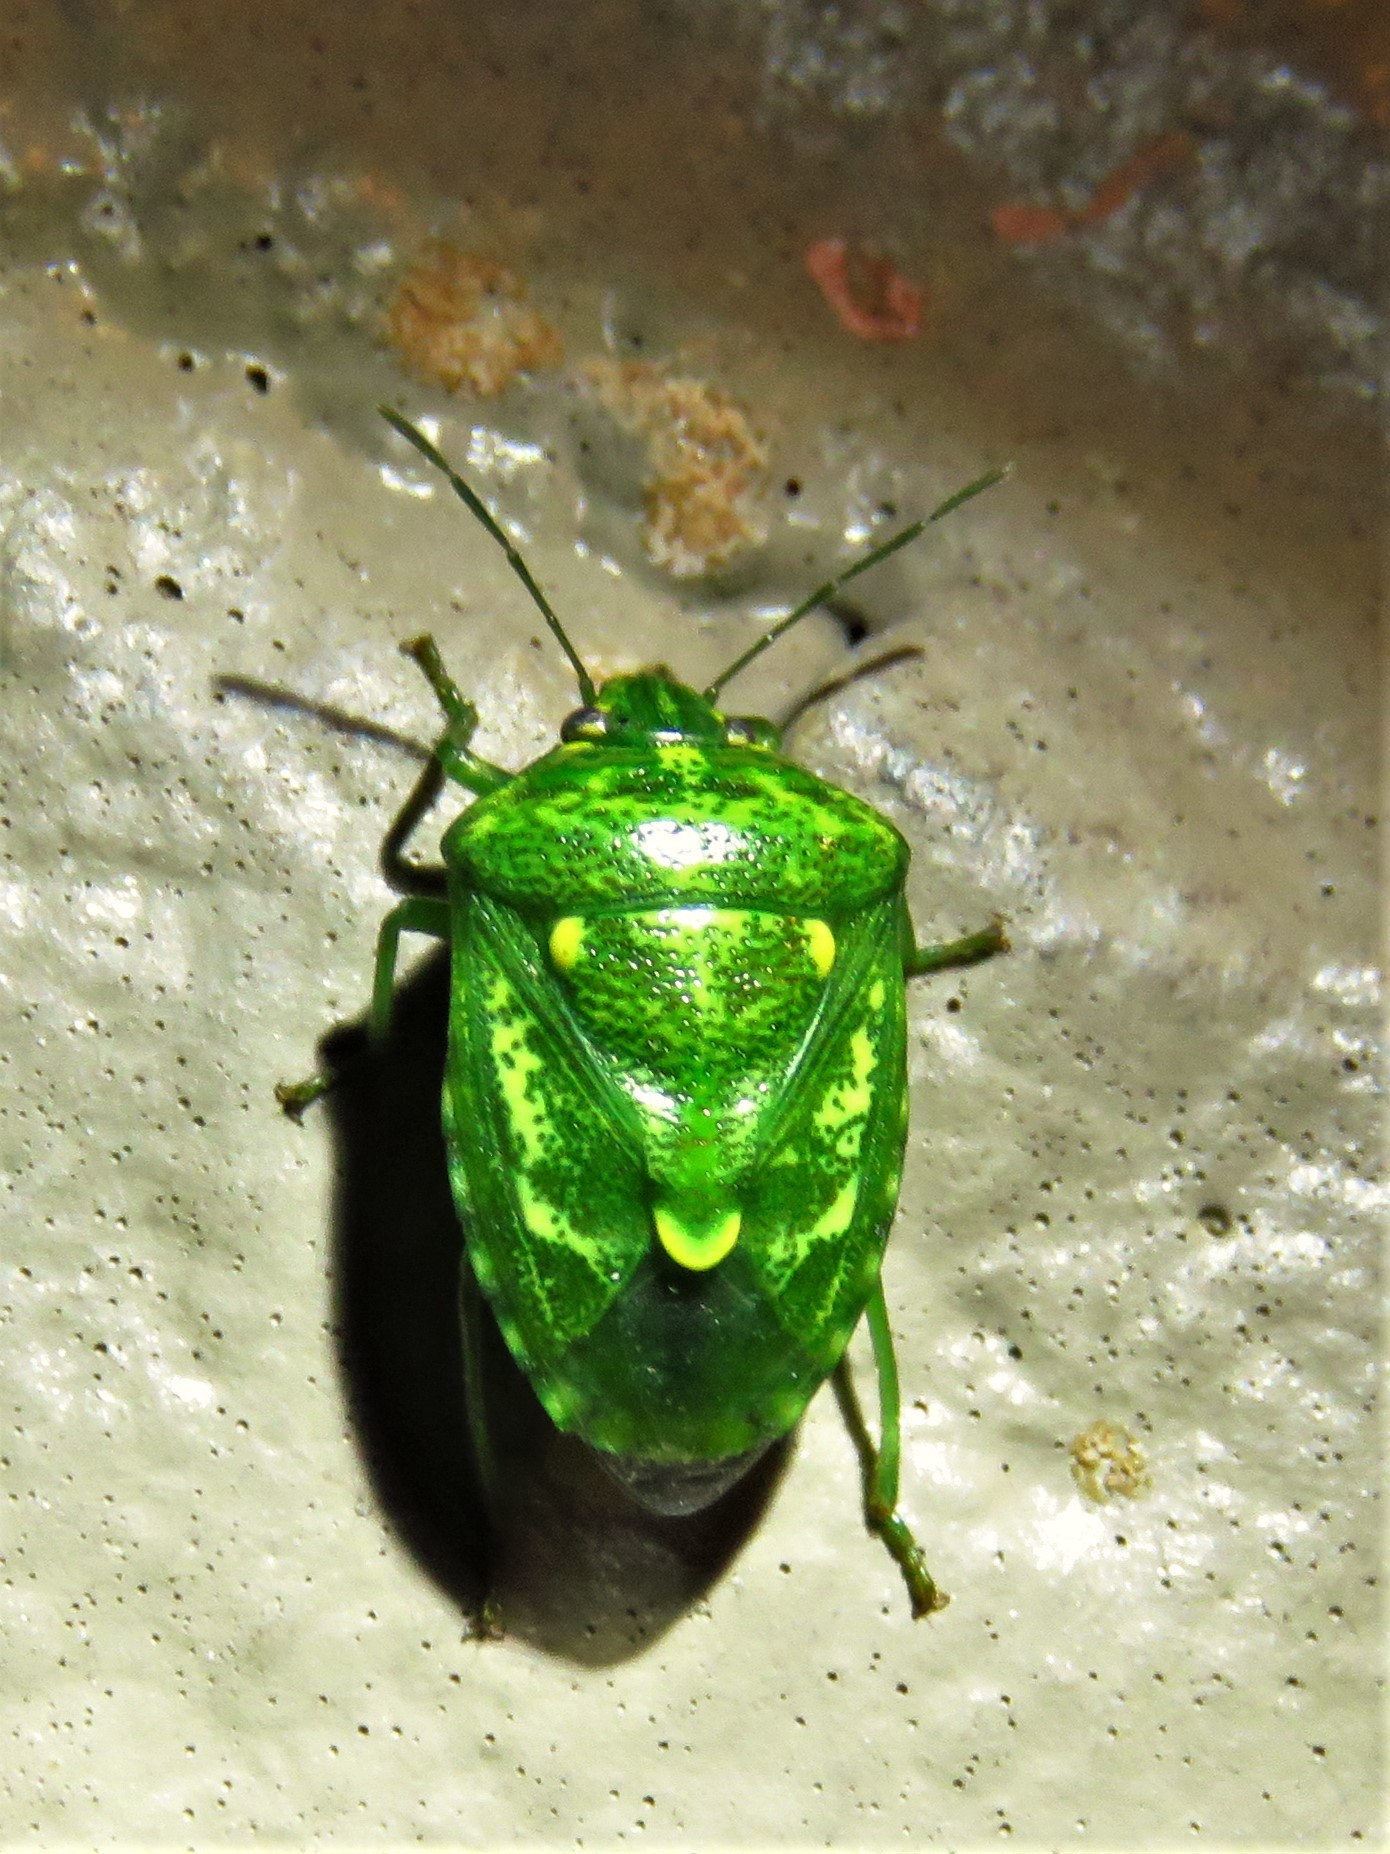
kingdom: Animalia
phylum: Arthropoda
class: Insecta
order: Hemiptera
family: Pentatomidae
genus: Banasa
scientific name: Banasa euchlora
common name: Cedar berry bug
